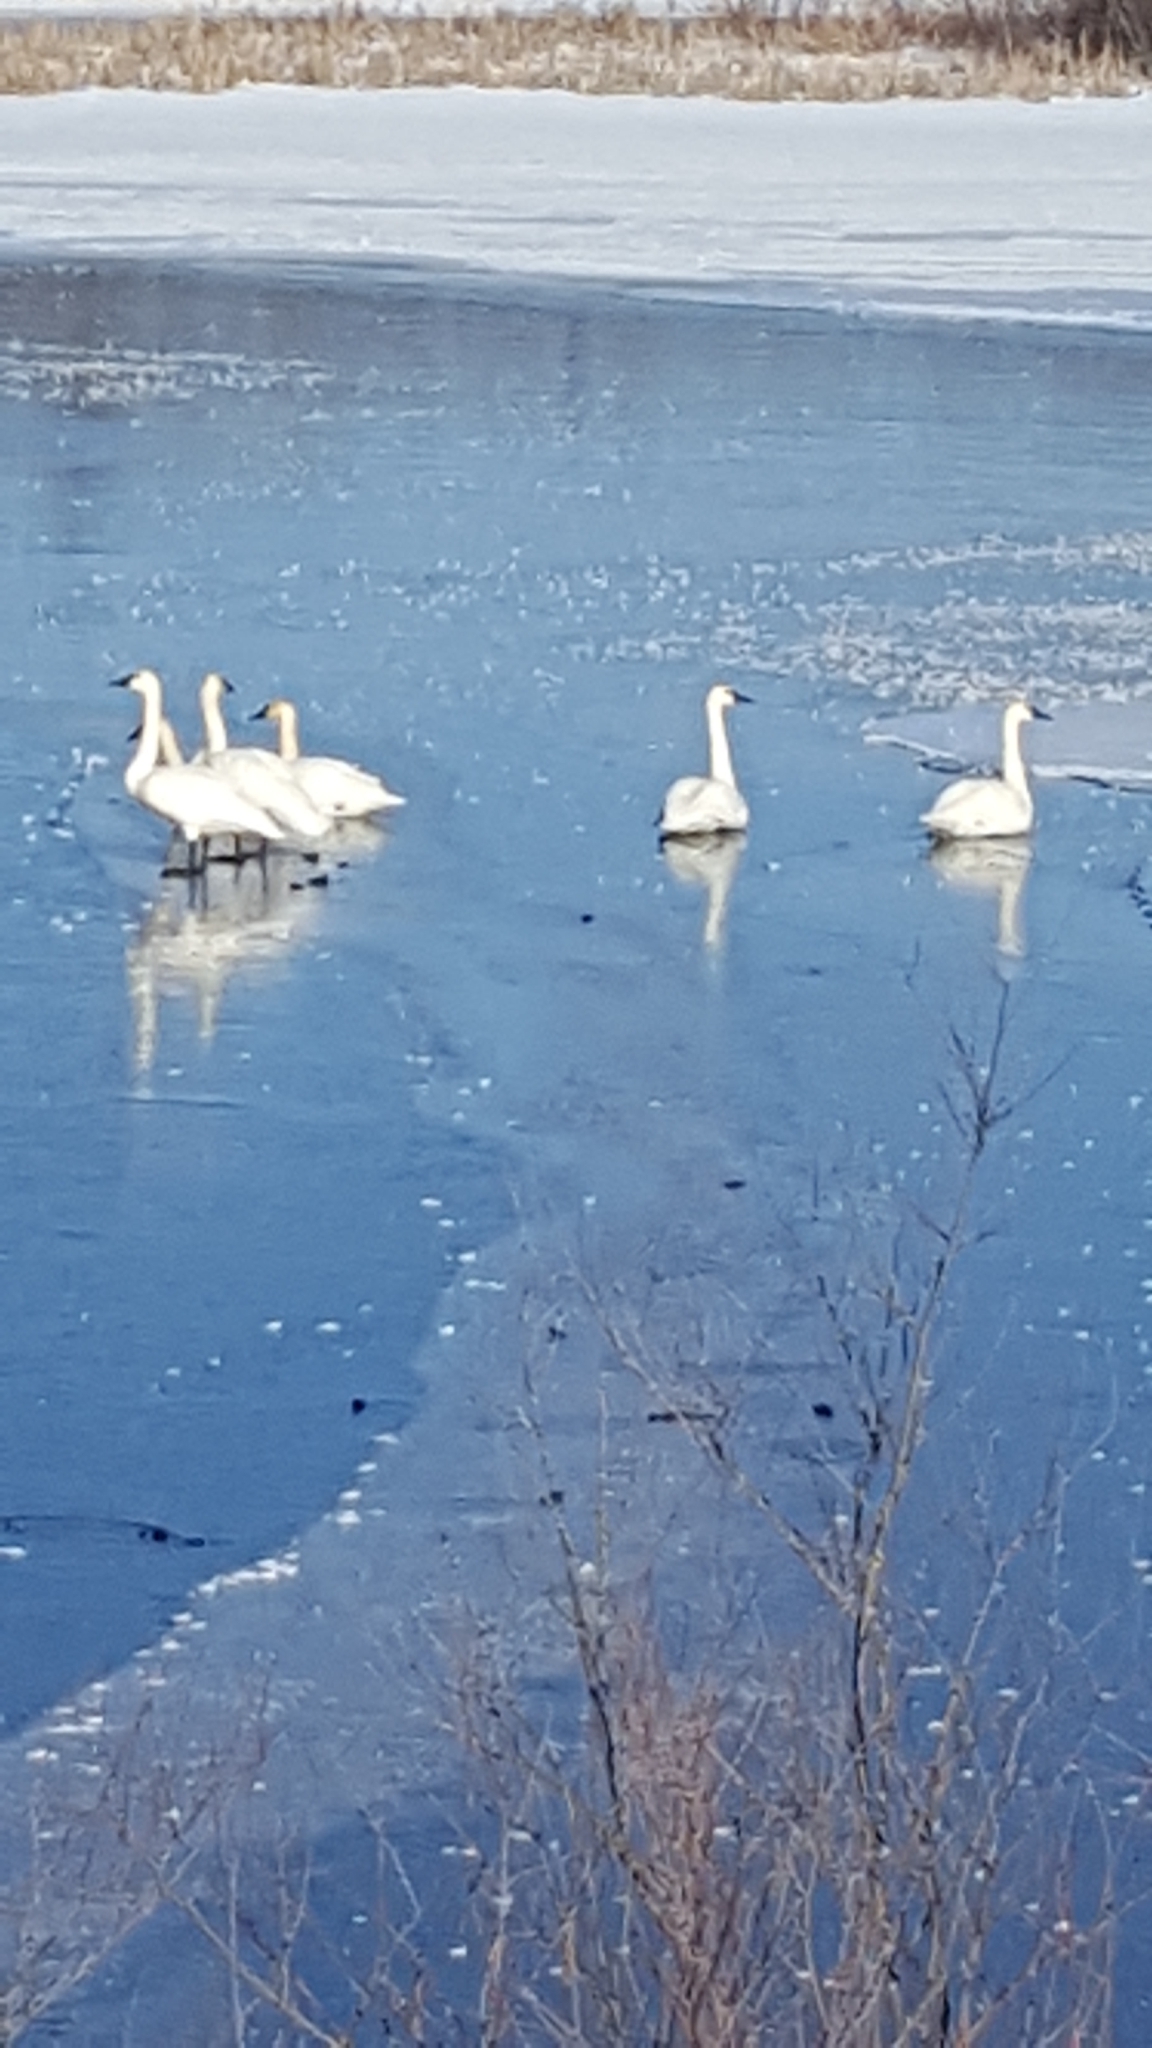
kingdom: Animalia
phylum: Chordata
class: Aves
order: Anseriformes
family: Anatidae
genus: Cygnus
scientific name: Cygnus buccinator
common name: Trumpeter swan
